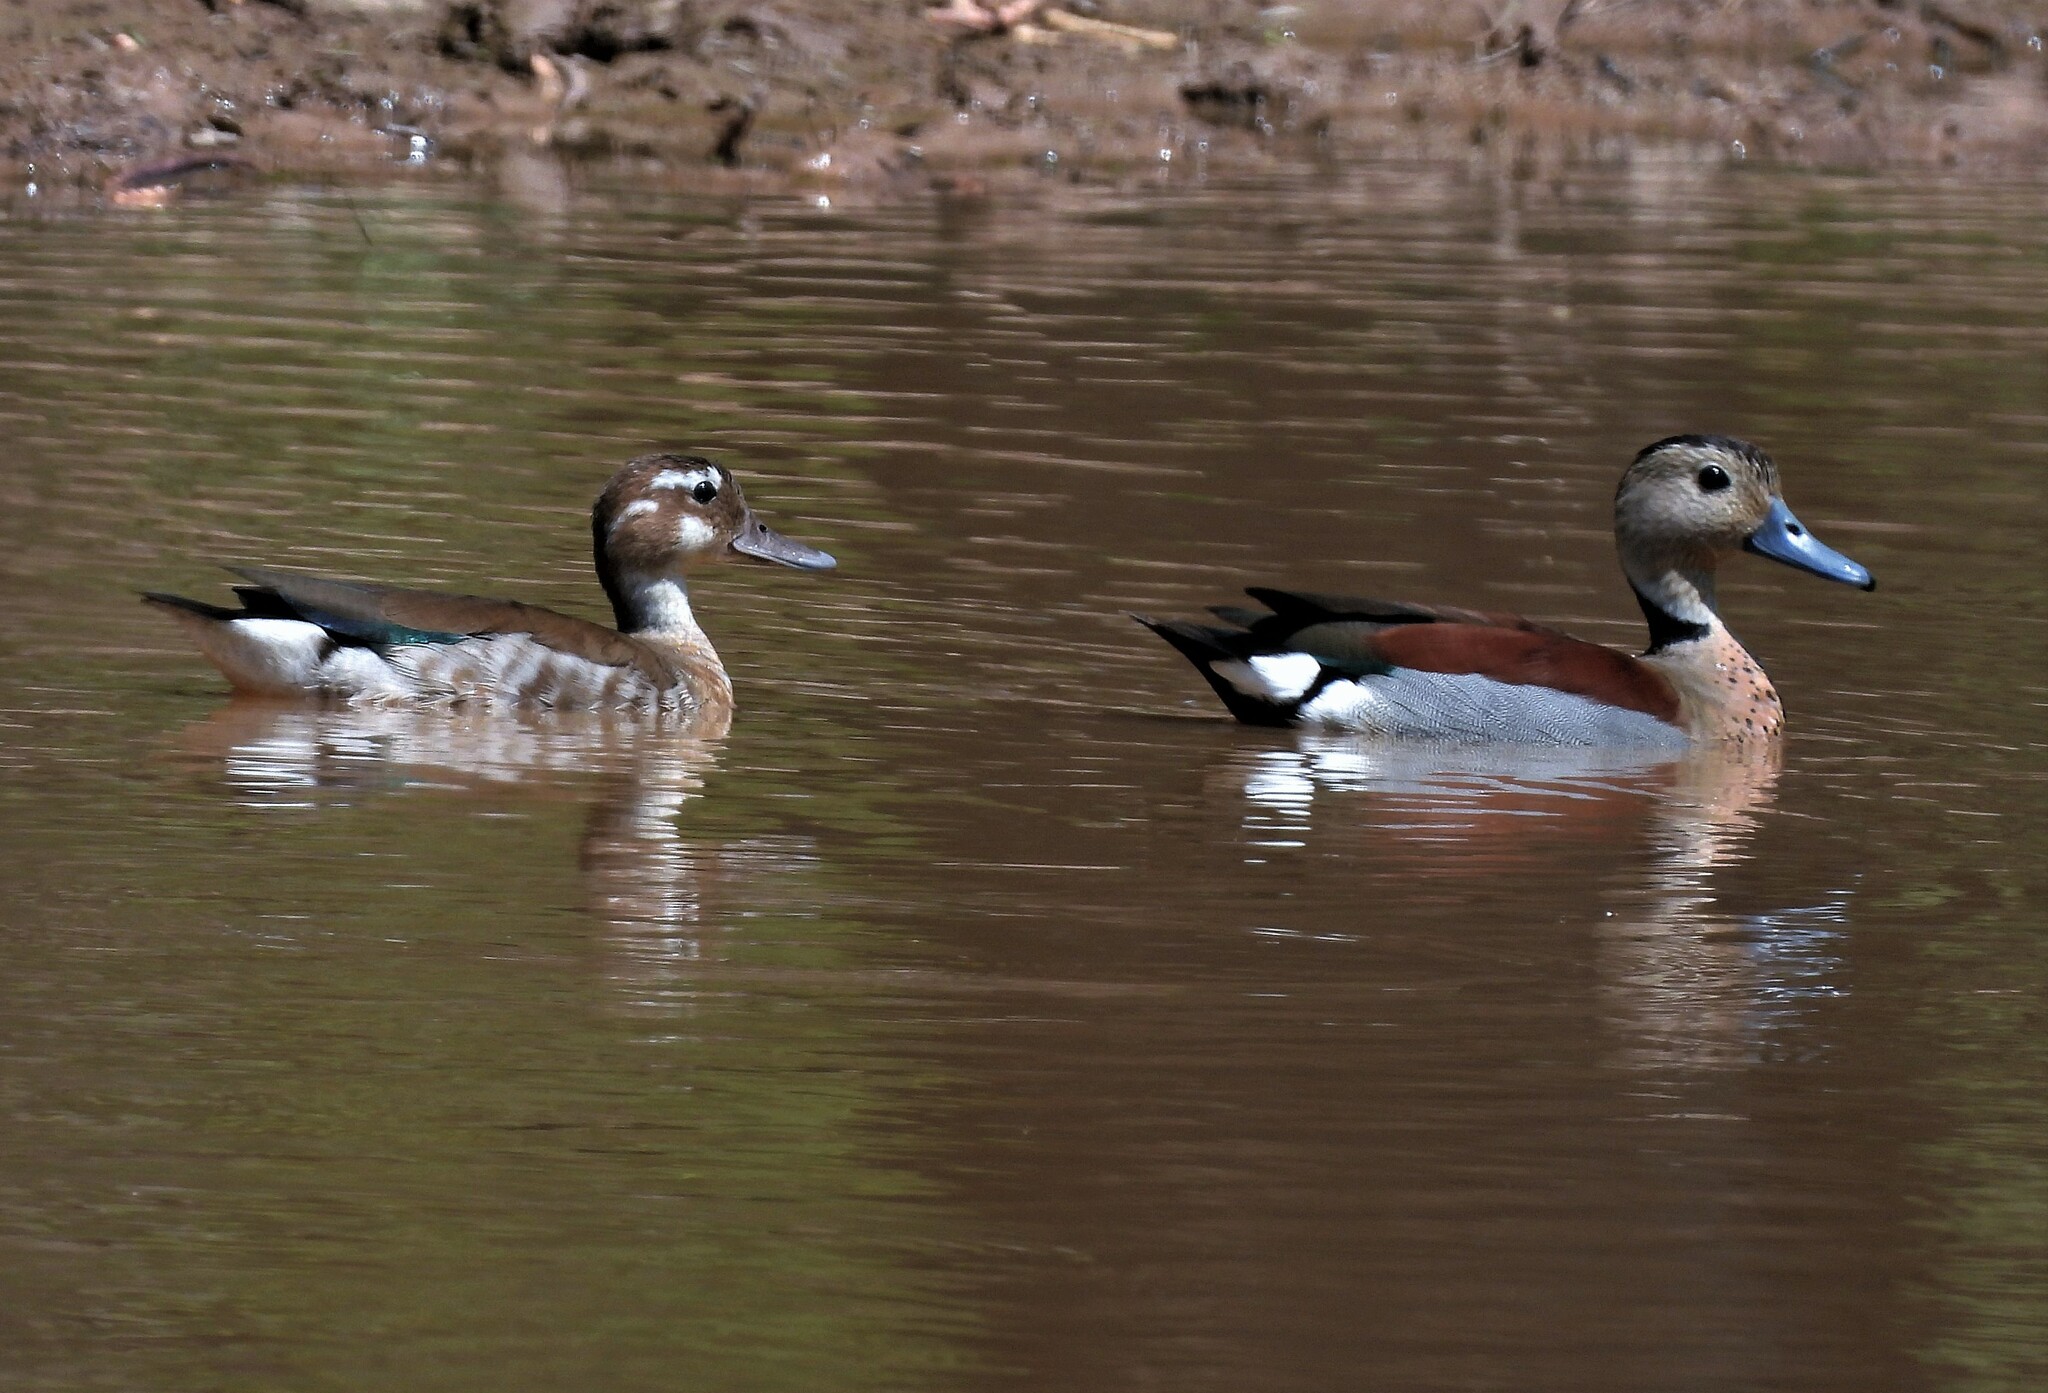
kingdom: Animalia
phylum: Chordata
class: Aves
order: Anseriformes
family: Anatidae
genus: Callonetta
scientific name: Callonetta leucophrys
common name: Ringed teal
